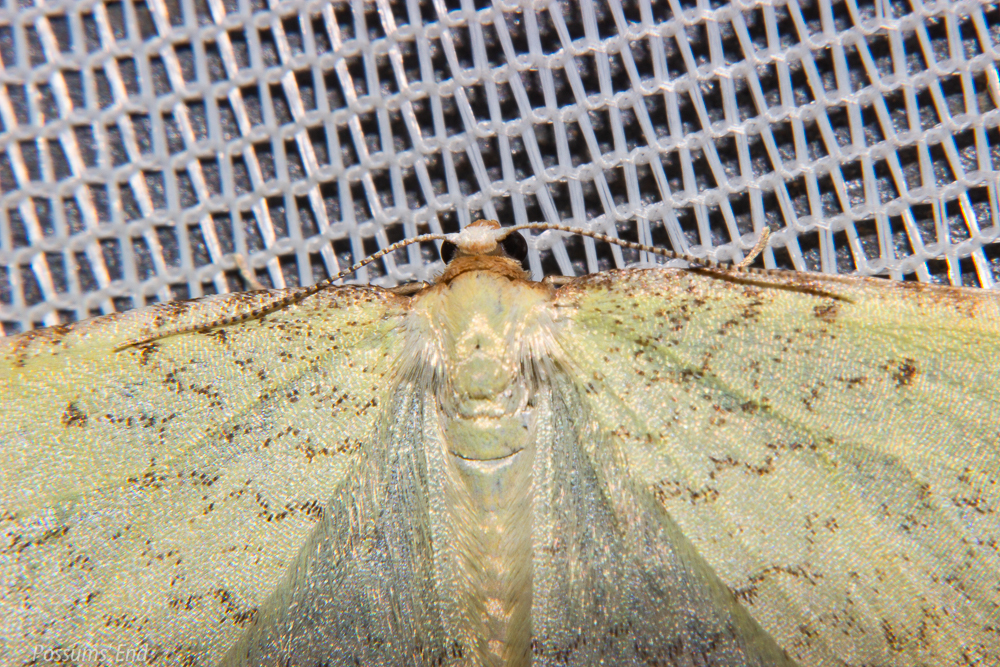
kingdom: Animalia
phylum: Arthropoda
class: Insecta
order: Lepidoptera
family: Geometridae
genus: Epiphryne
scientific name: Epiphryne undosata
